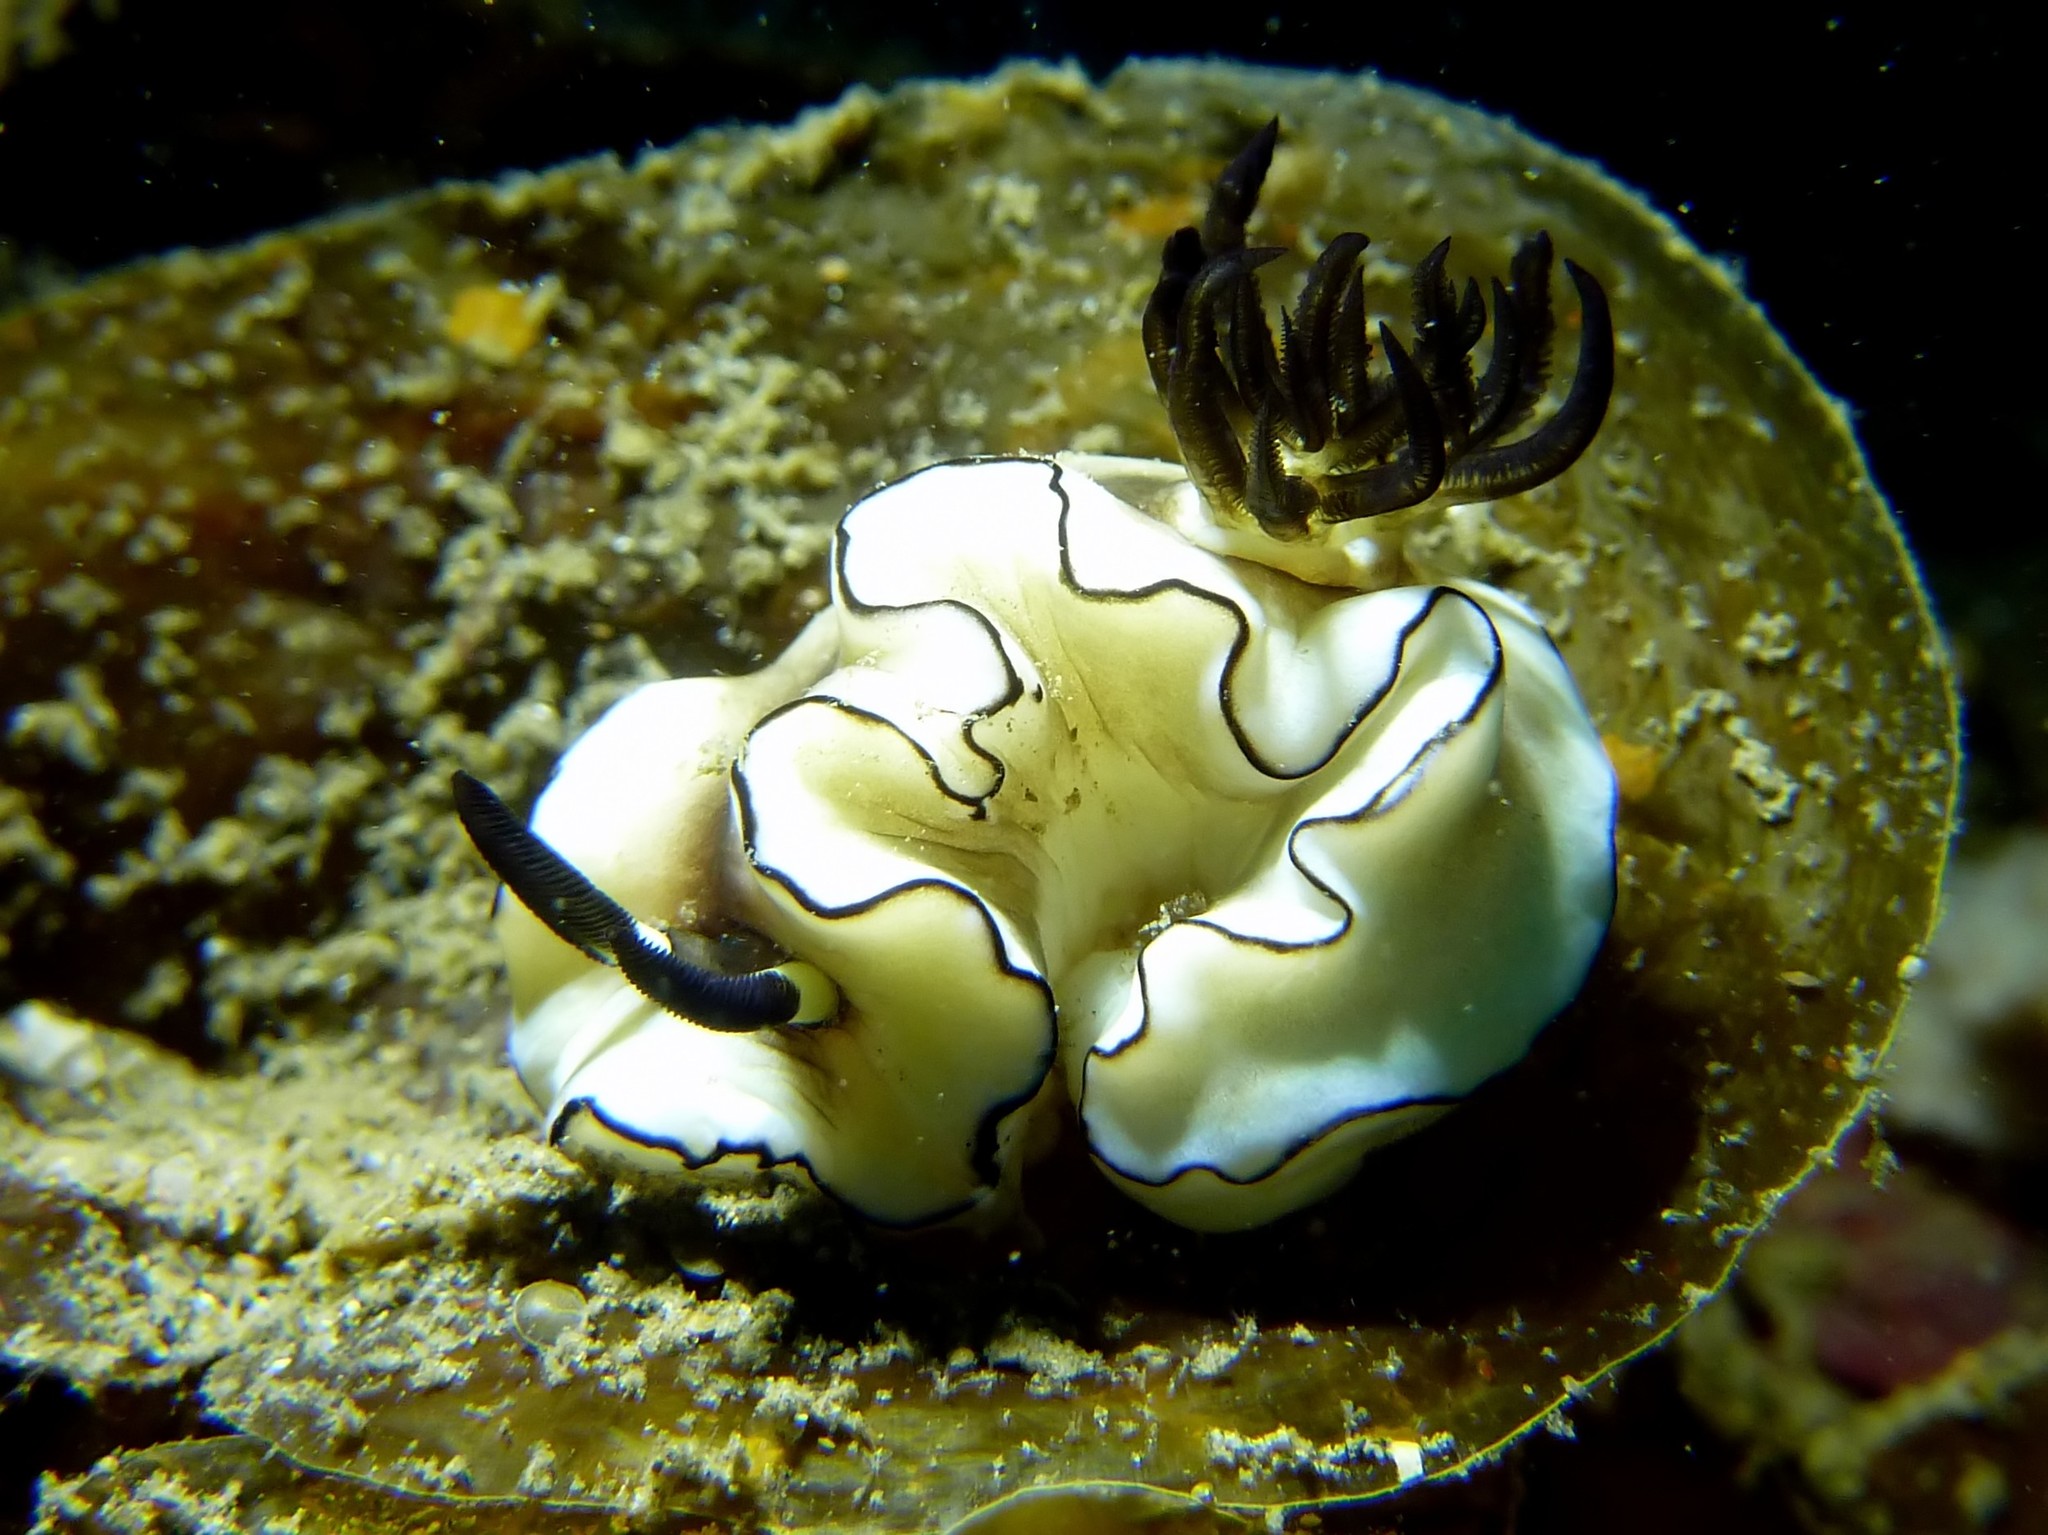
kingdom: Animalia
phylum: Mollusca
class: Gastropoda
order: Nudibranchia
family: Chromodorididae
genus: Doriprismatica
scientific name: Doriprismatica atromarginata
